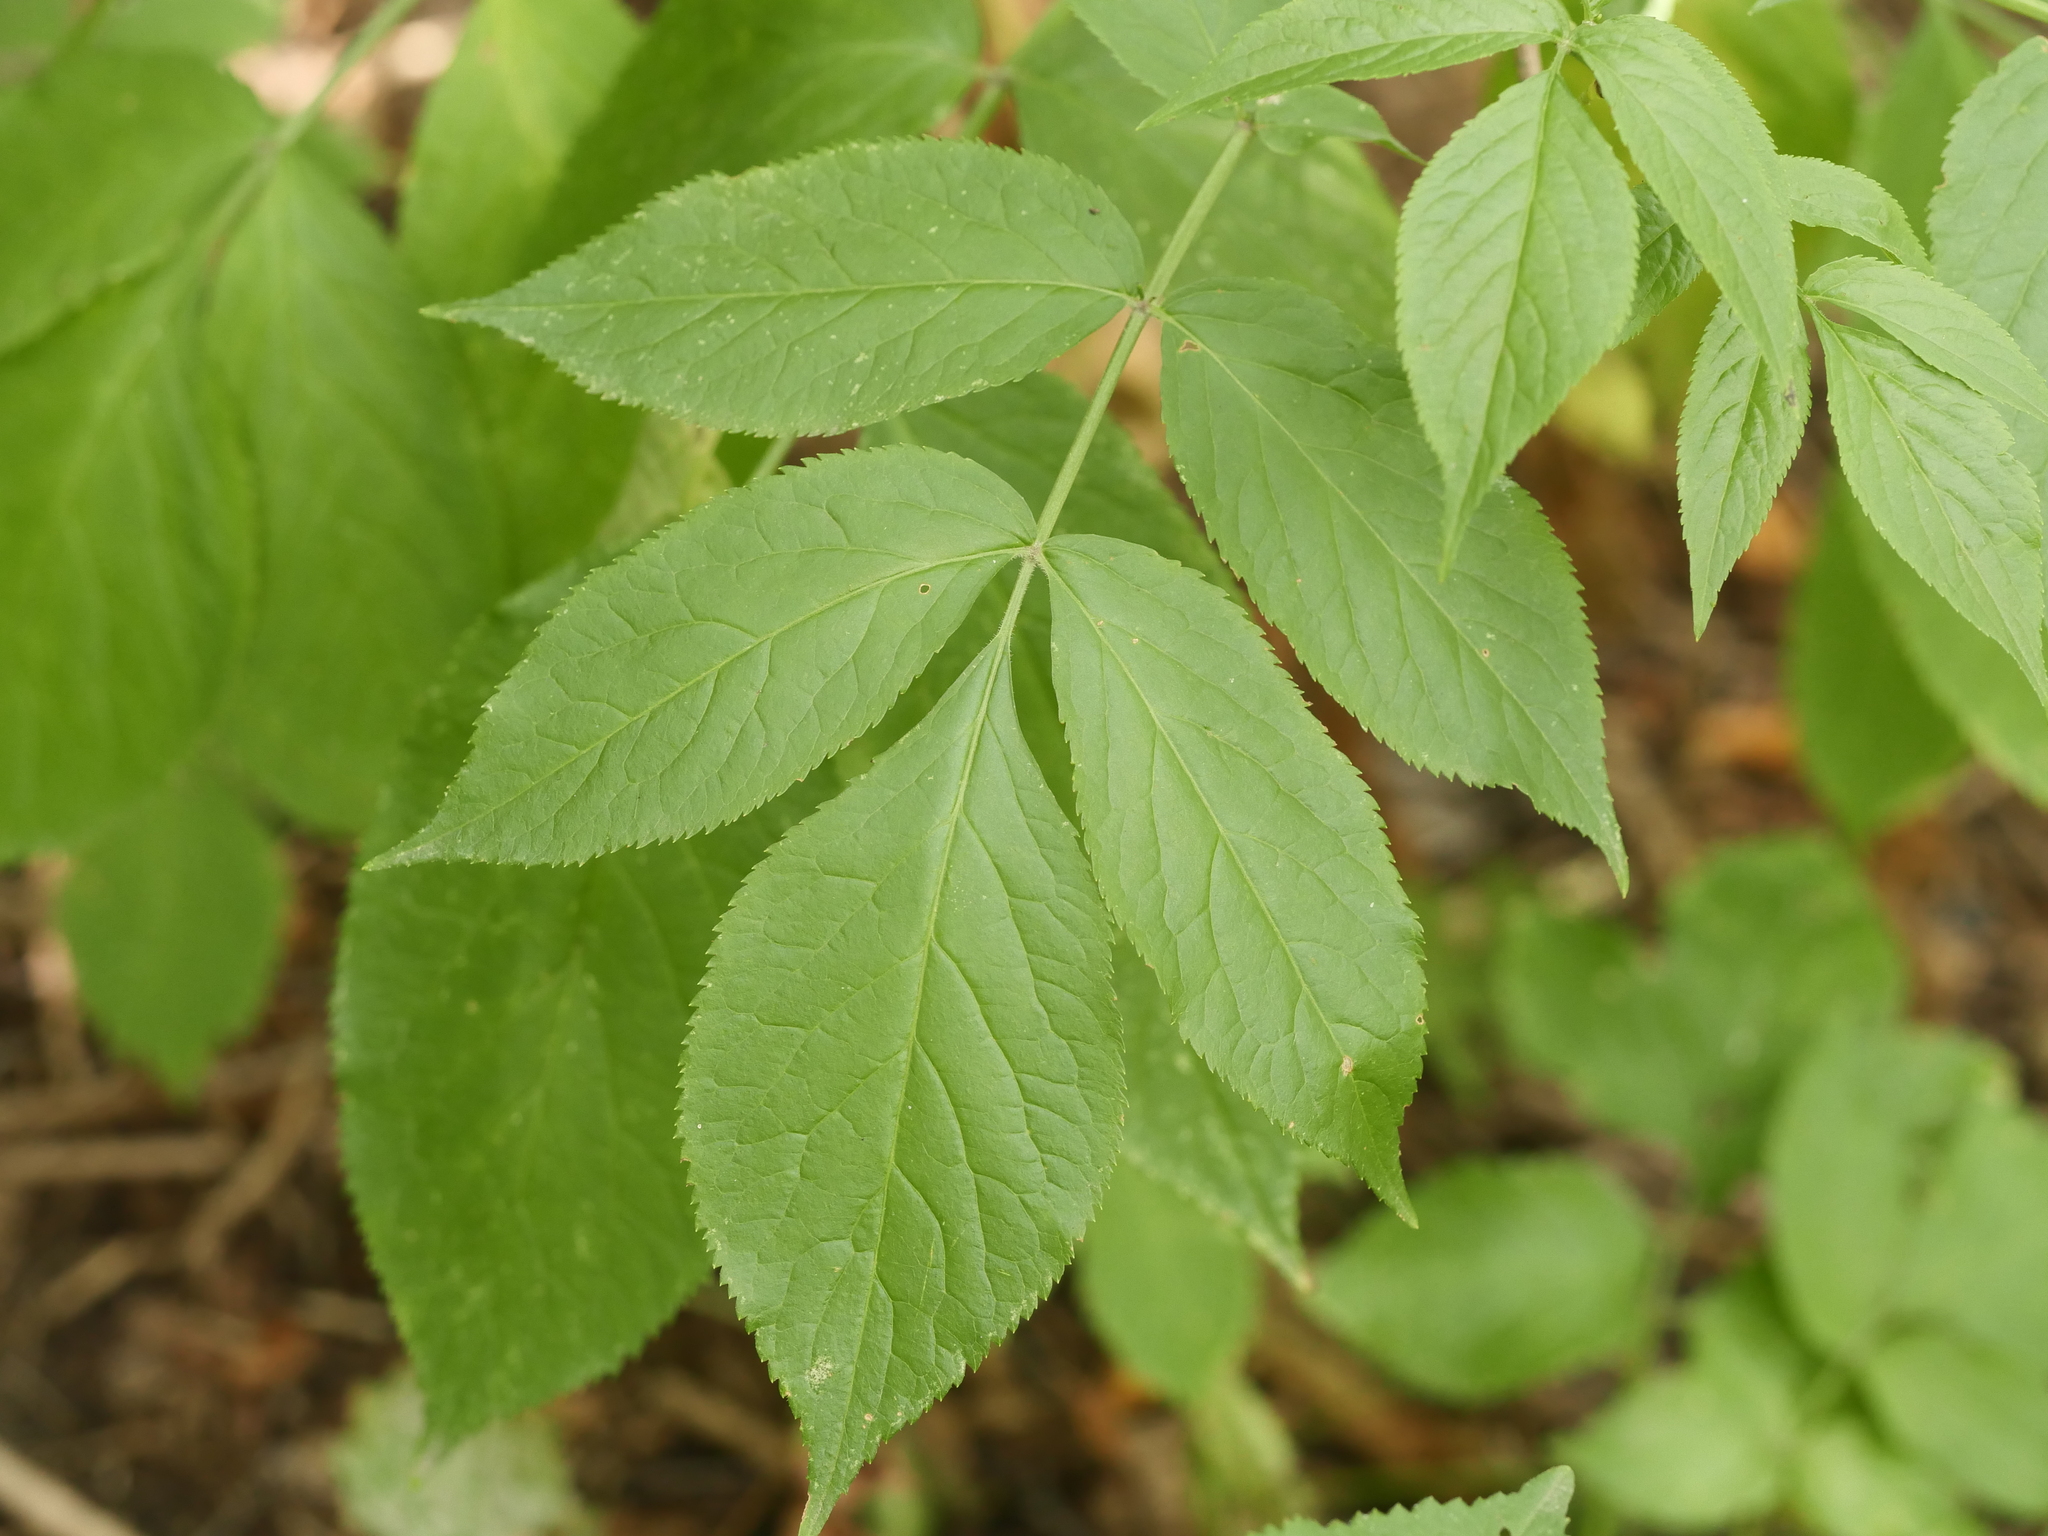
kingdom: Plantae
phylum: Tracheophyta
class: Magnoliopsida
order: Dipsacales
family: Viburnaceae
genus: Sambucus
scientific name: Sambucus nigra
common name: Elder
